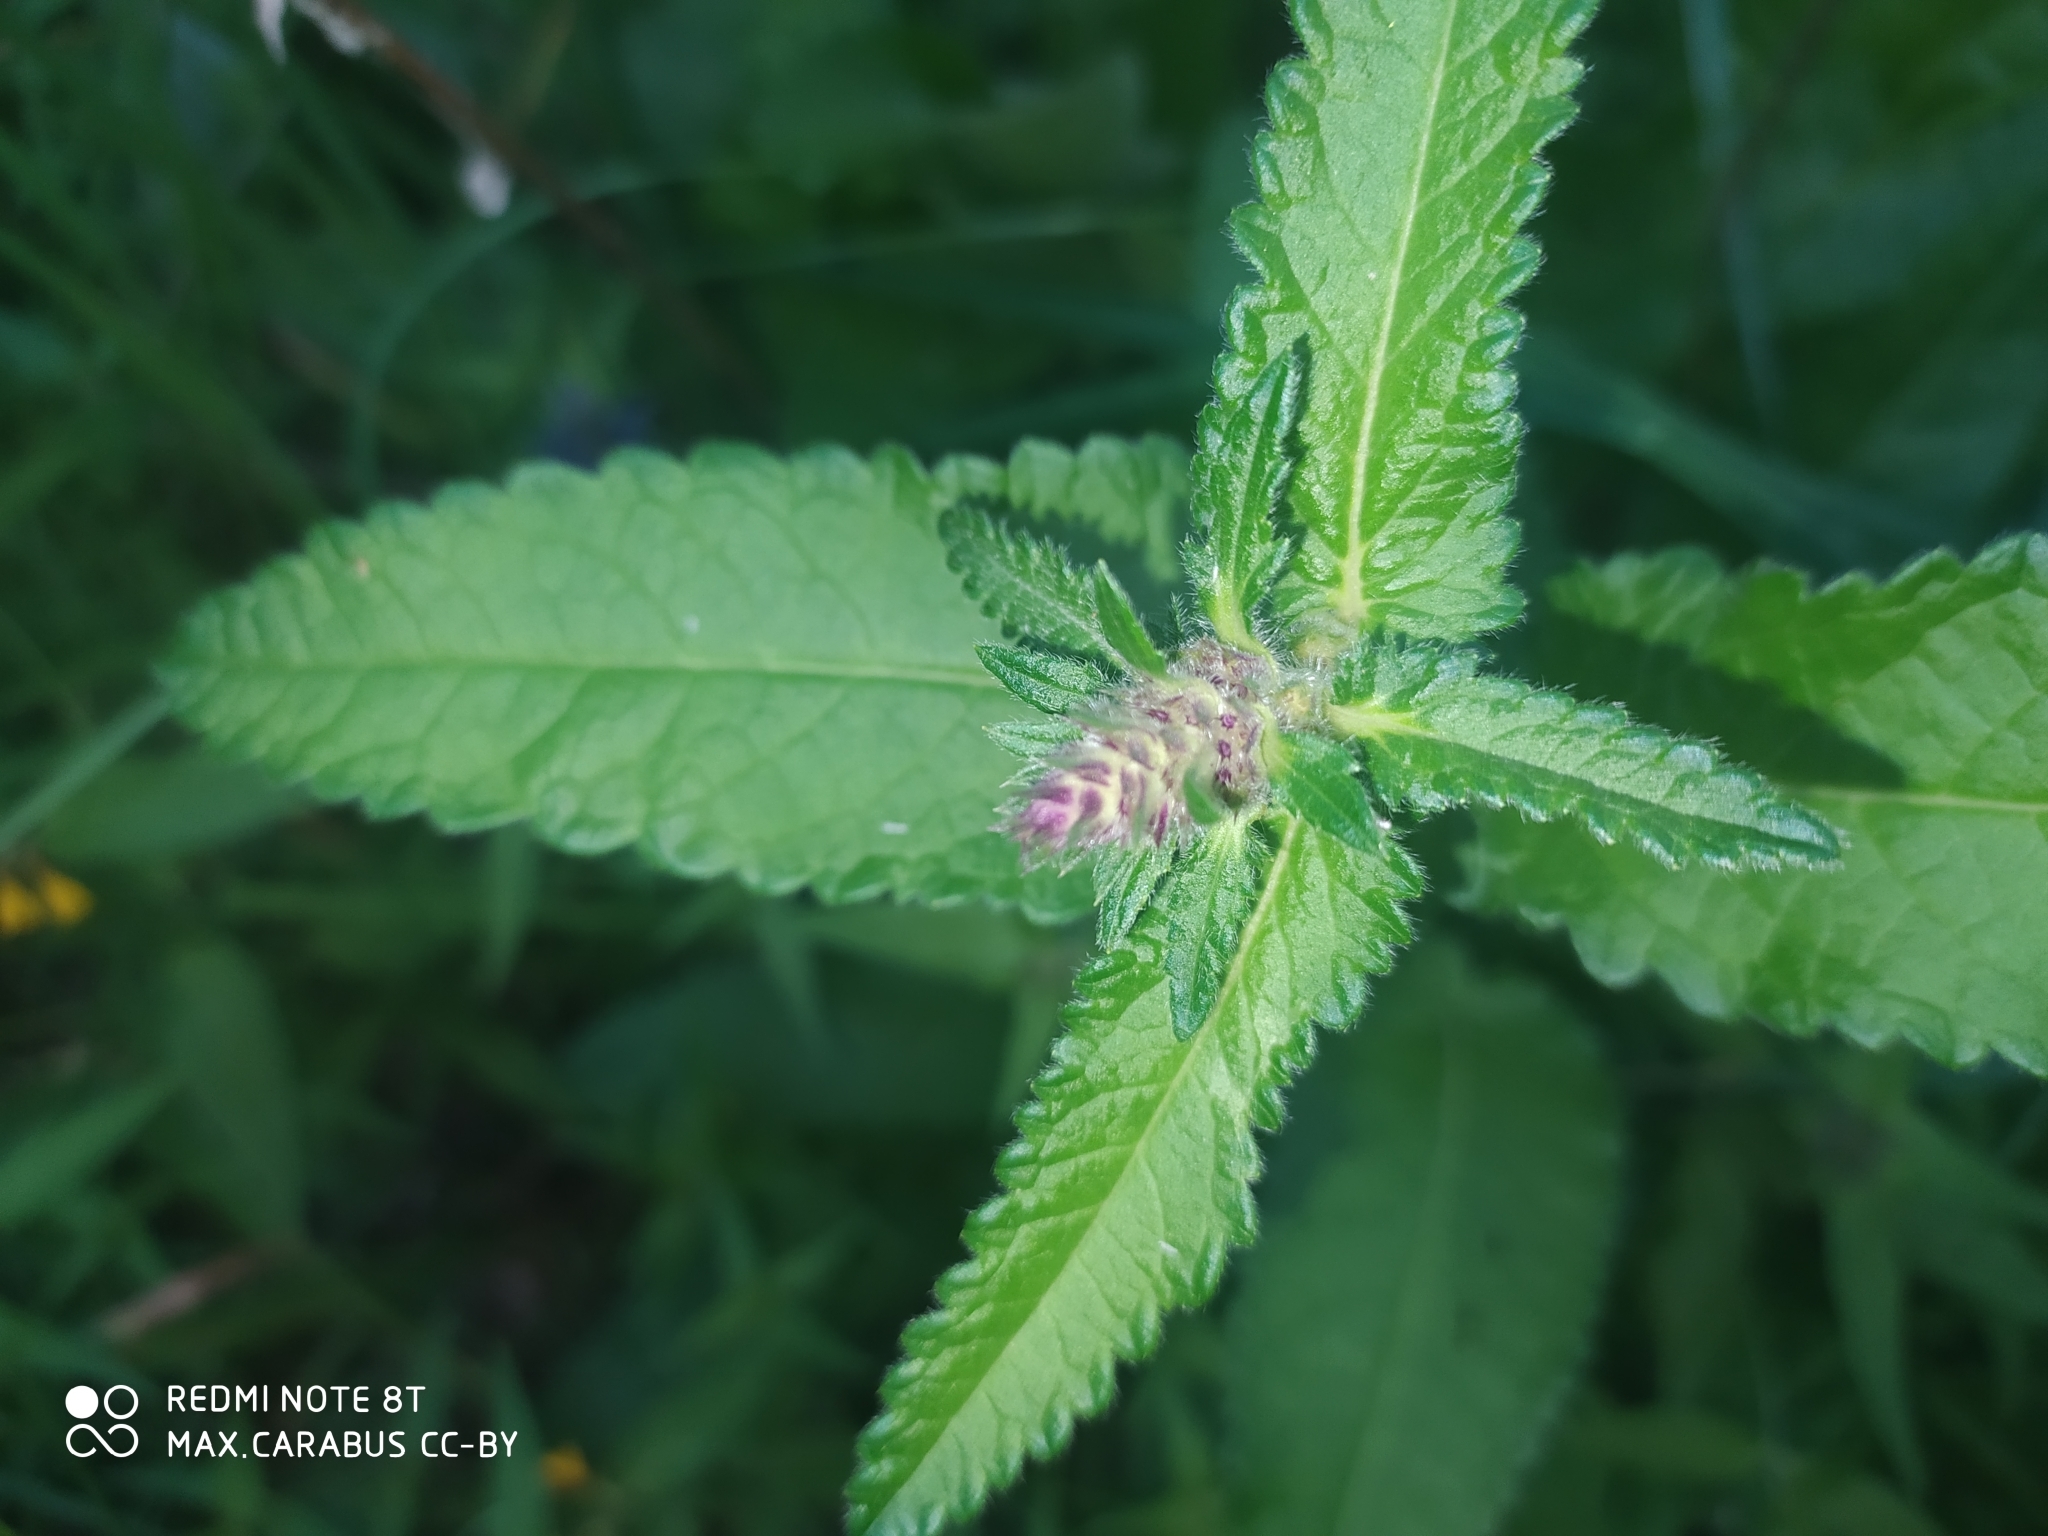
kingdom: Plantae
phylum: Tracheophyta
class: Magnoliopsida
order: Lamiales
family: Lamiaceae
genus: Betonica
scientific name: Betonica officinalis
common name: Bishop's-wort
